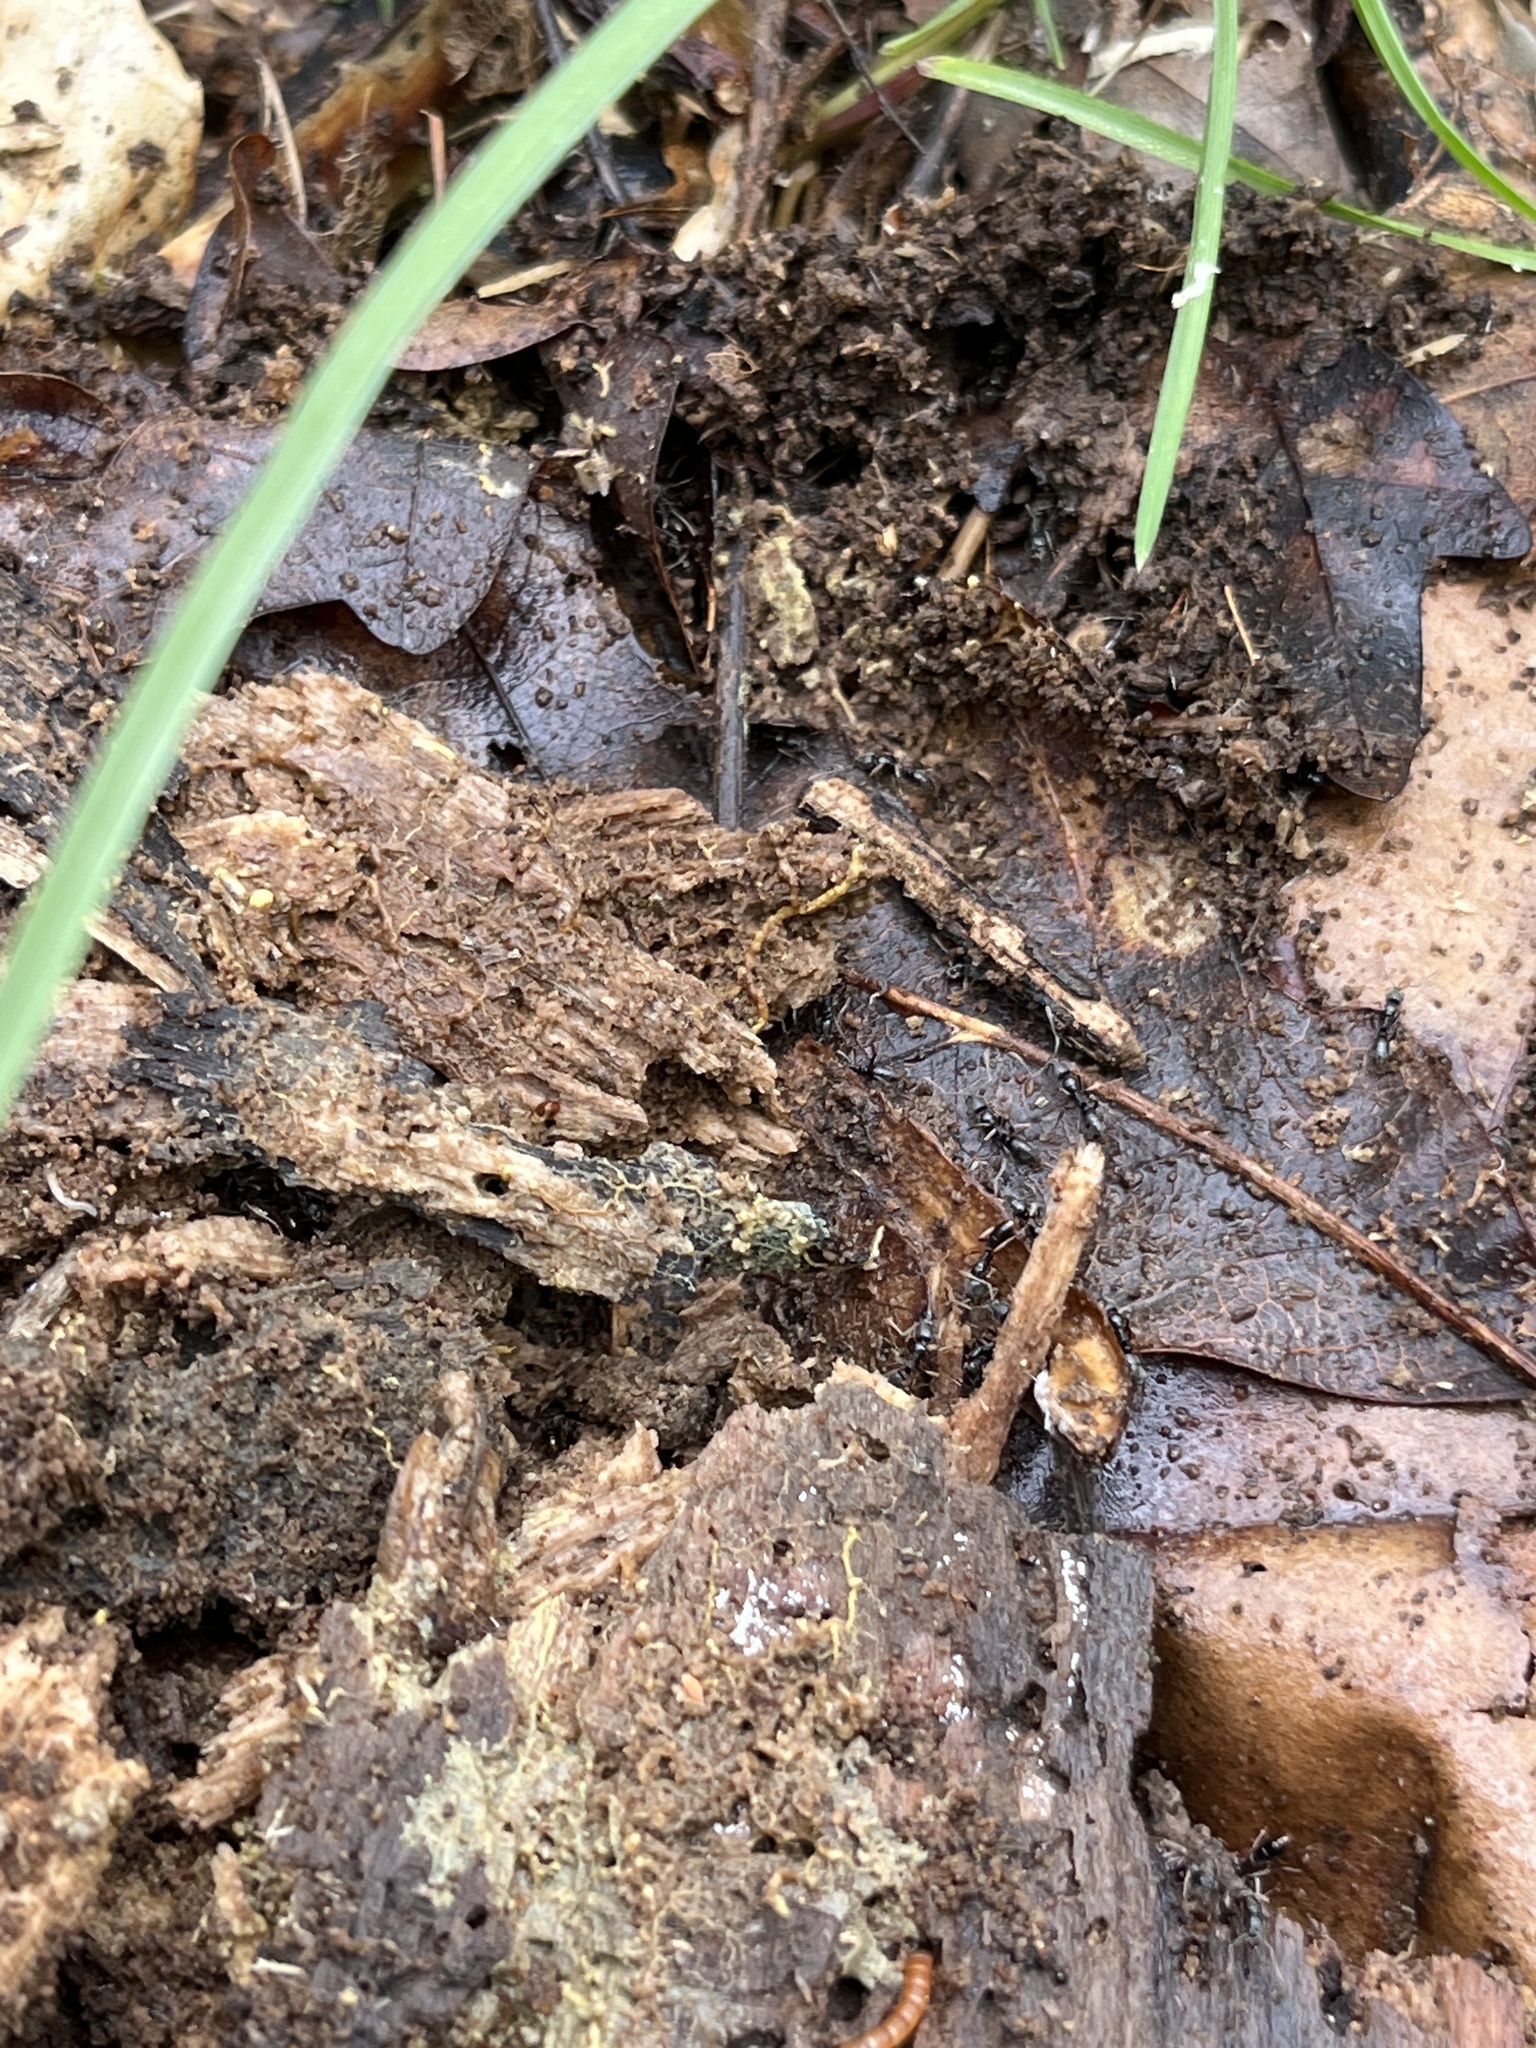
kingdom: Animalia
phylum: Arthropoda
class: Insecta
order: Hymenoptera
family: Formicidae
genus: Pachycondyla
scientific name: Pachycondyla chinensis
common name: Asian needle ant
